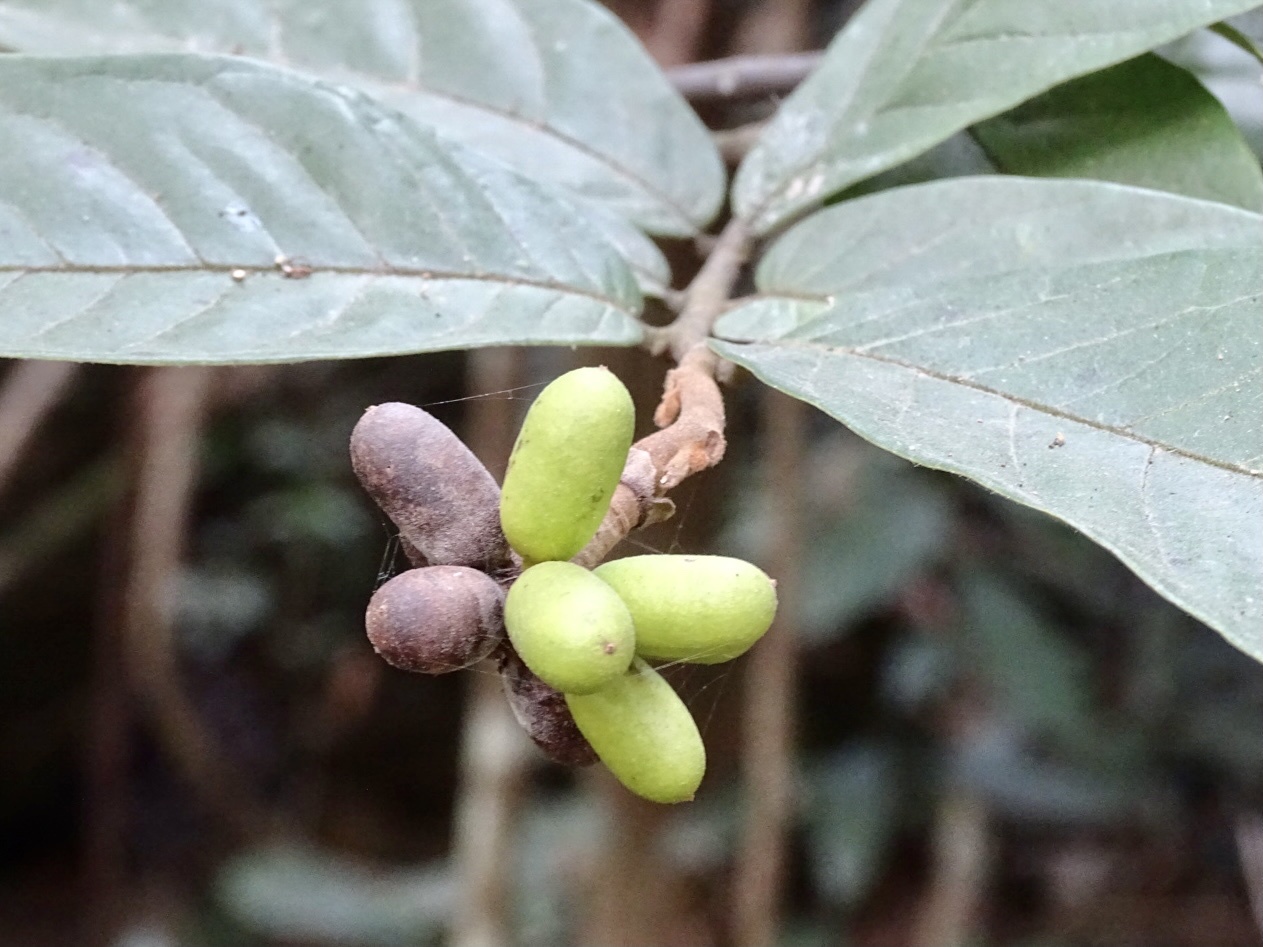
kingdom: Plantae
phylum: Tracheophyta
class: Magnoliopsida
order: Magnoliales
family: Annonaceae
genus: Uvaria
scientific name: Uvaria littoralis
